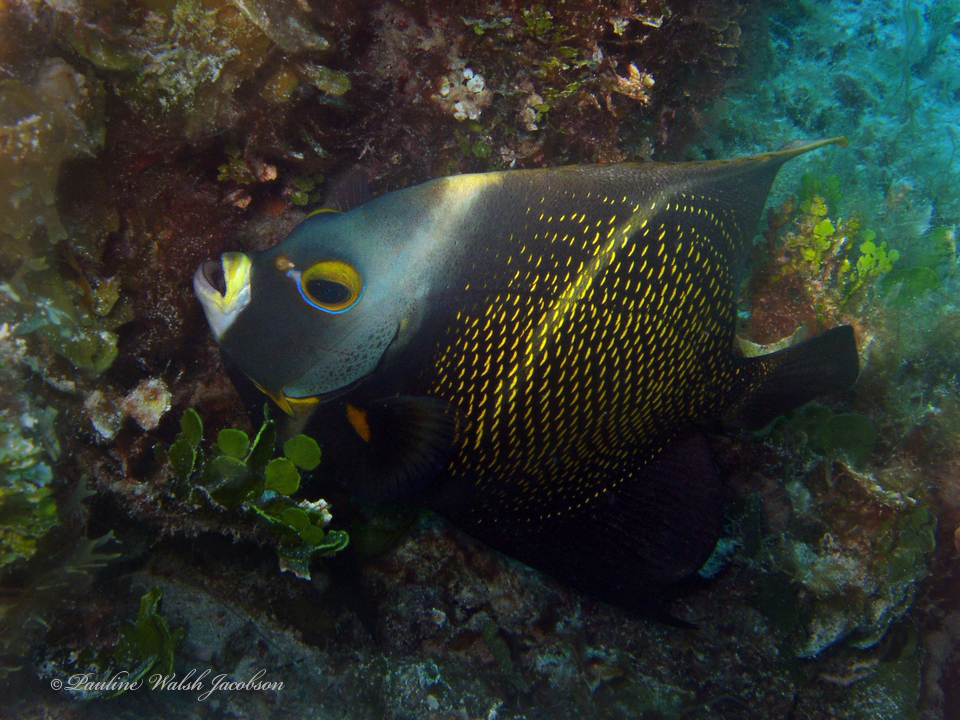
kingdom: Animalia
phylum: Chordata
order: Perciformes
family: Pomacanthidae
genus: Pomacanthus
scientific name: Pomacanthus paru
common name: French angelfish
